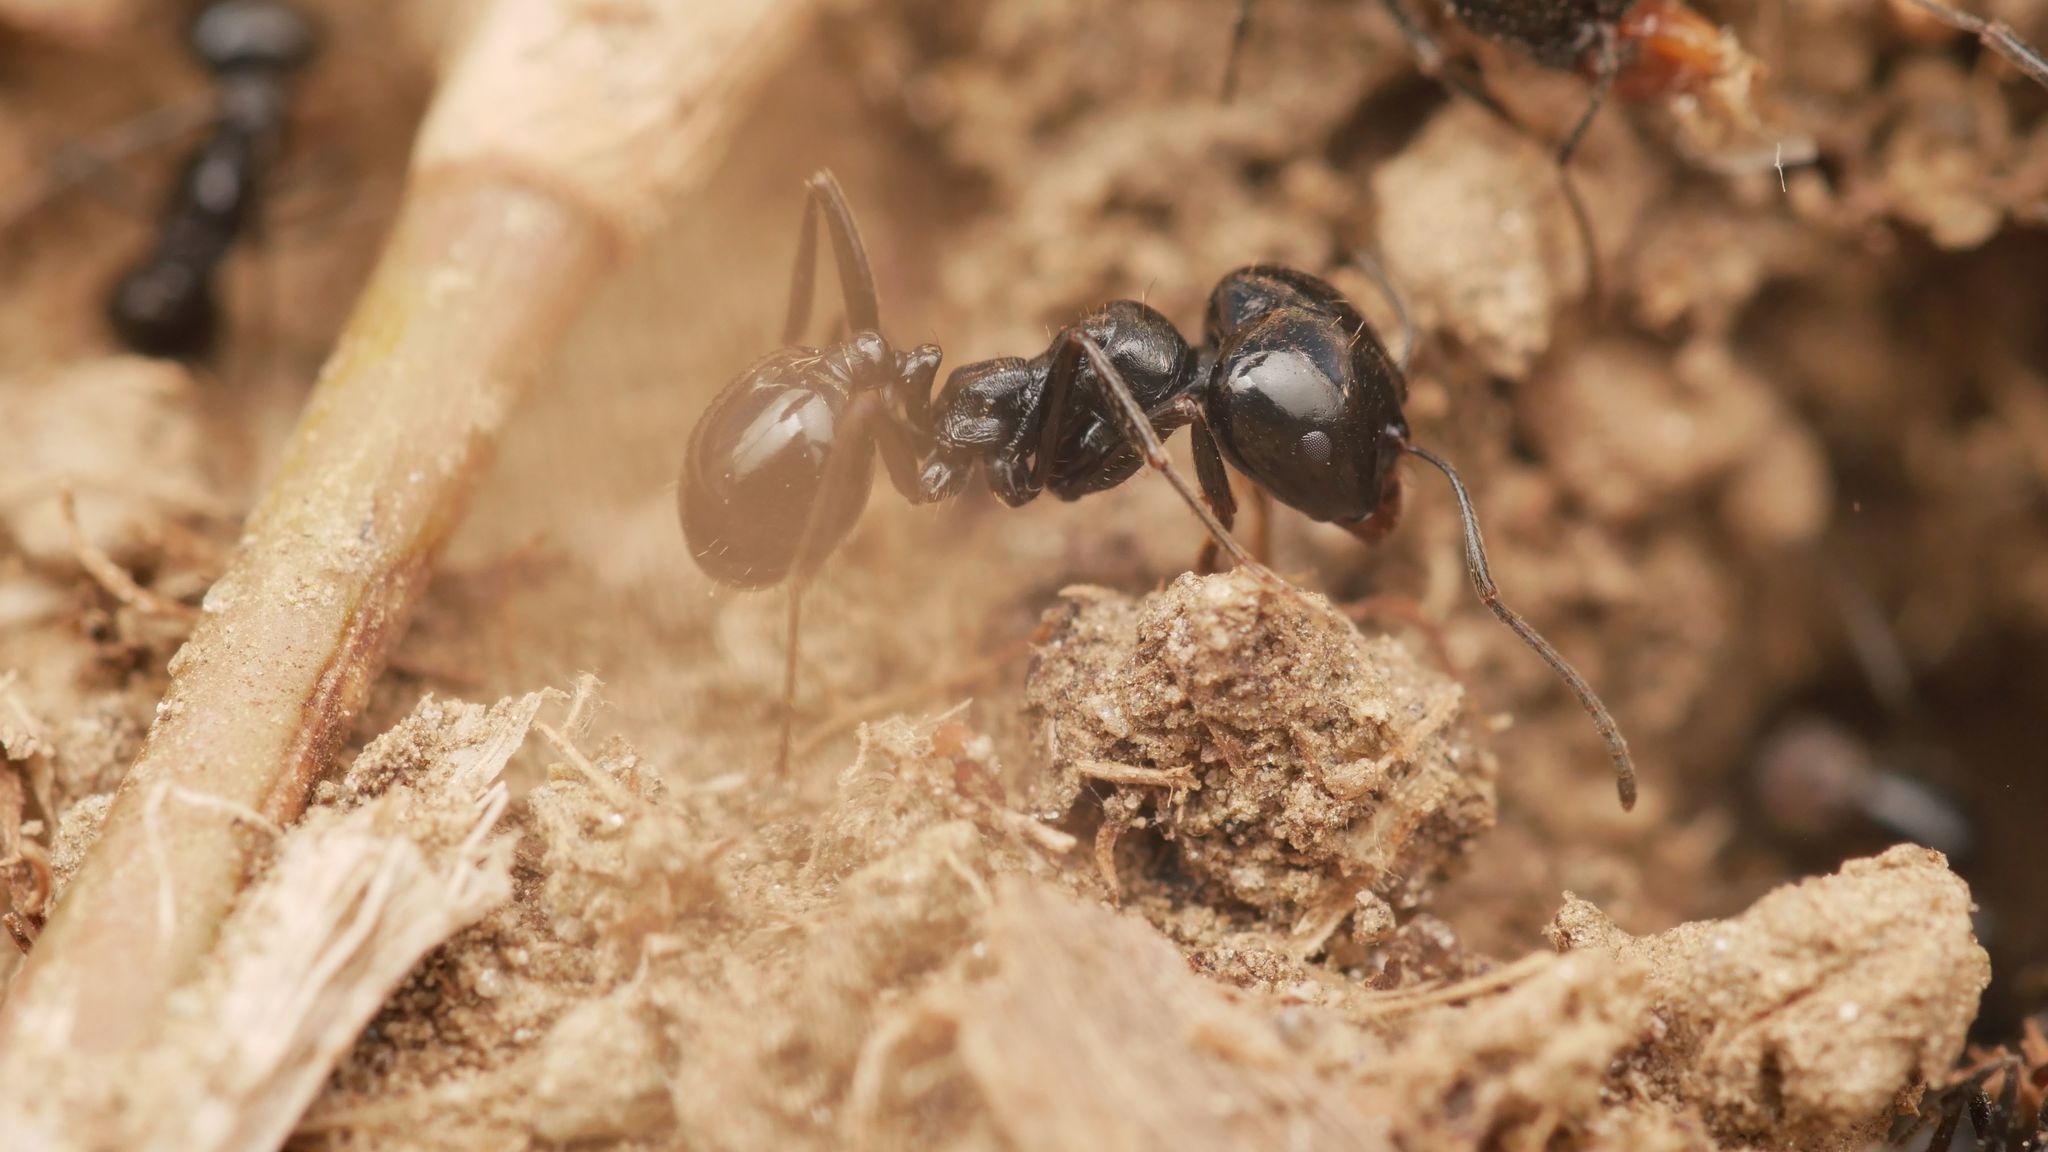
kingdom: Animalia
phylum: Arthropoda
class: Insecta
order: Hymenoptera
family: Formicidae
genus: Messor
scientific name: Messor bouvieri
